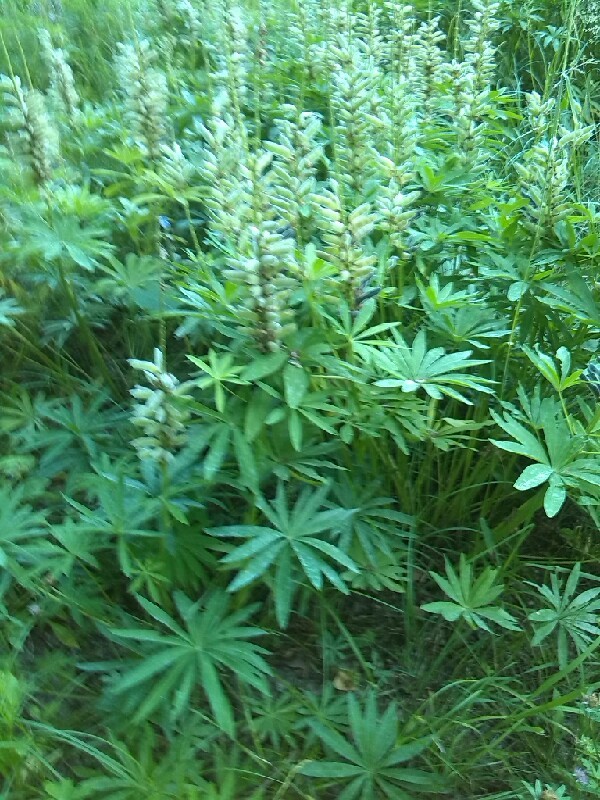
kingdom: Plantae
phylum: Tracheophyta
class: Magnoliopsida
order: Fabales
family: Fabaceae
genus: Lupinus
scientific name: Lupinus polyphyllus
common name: Garden lupin
